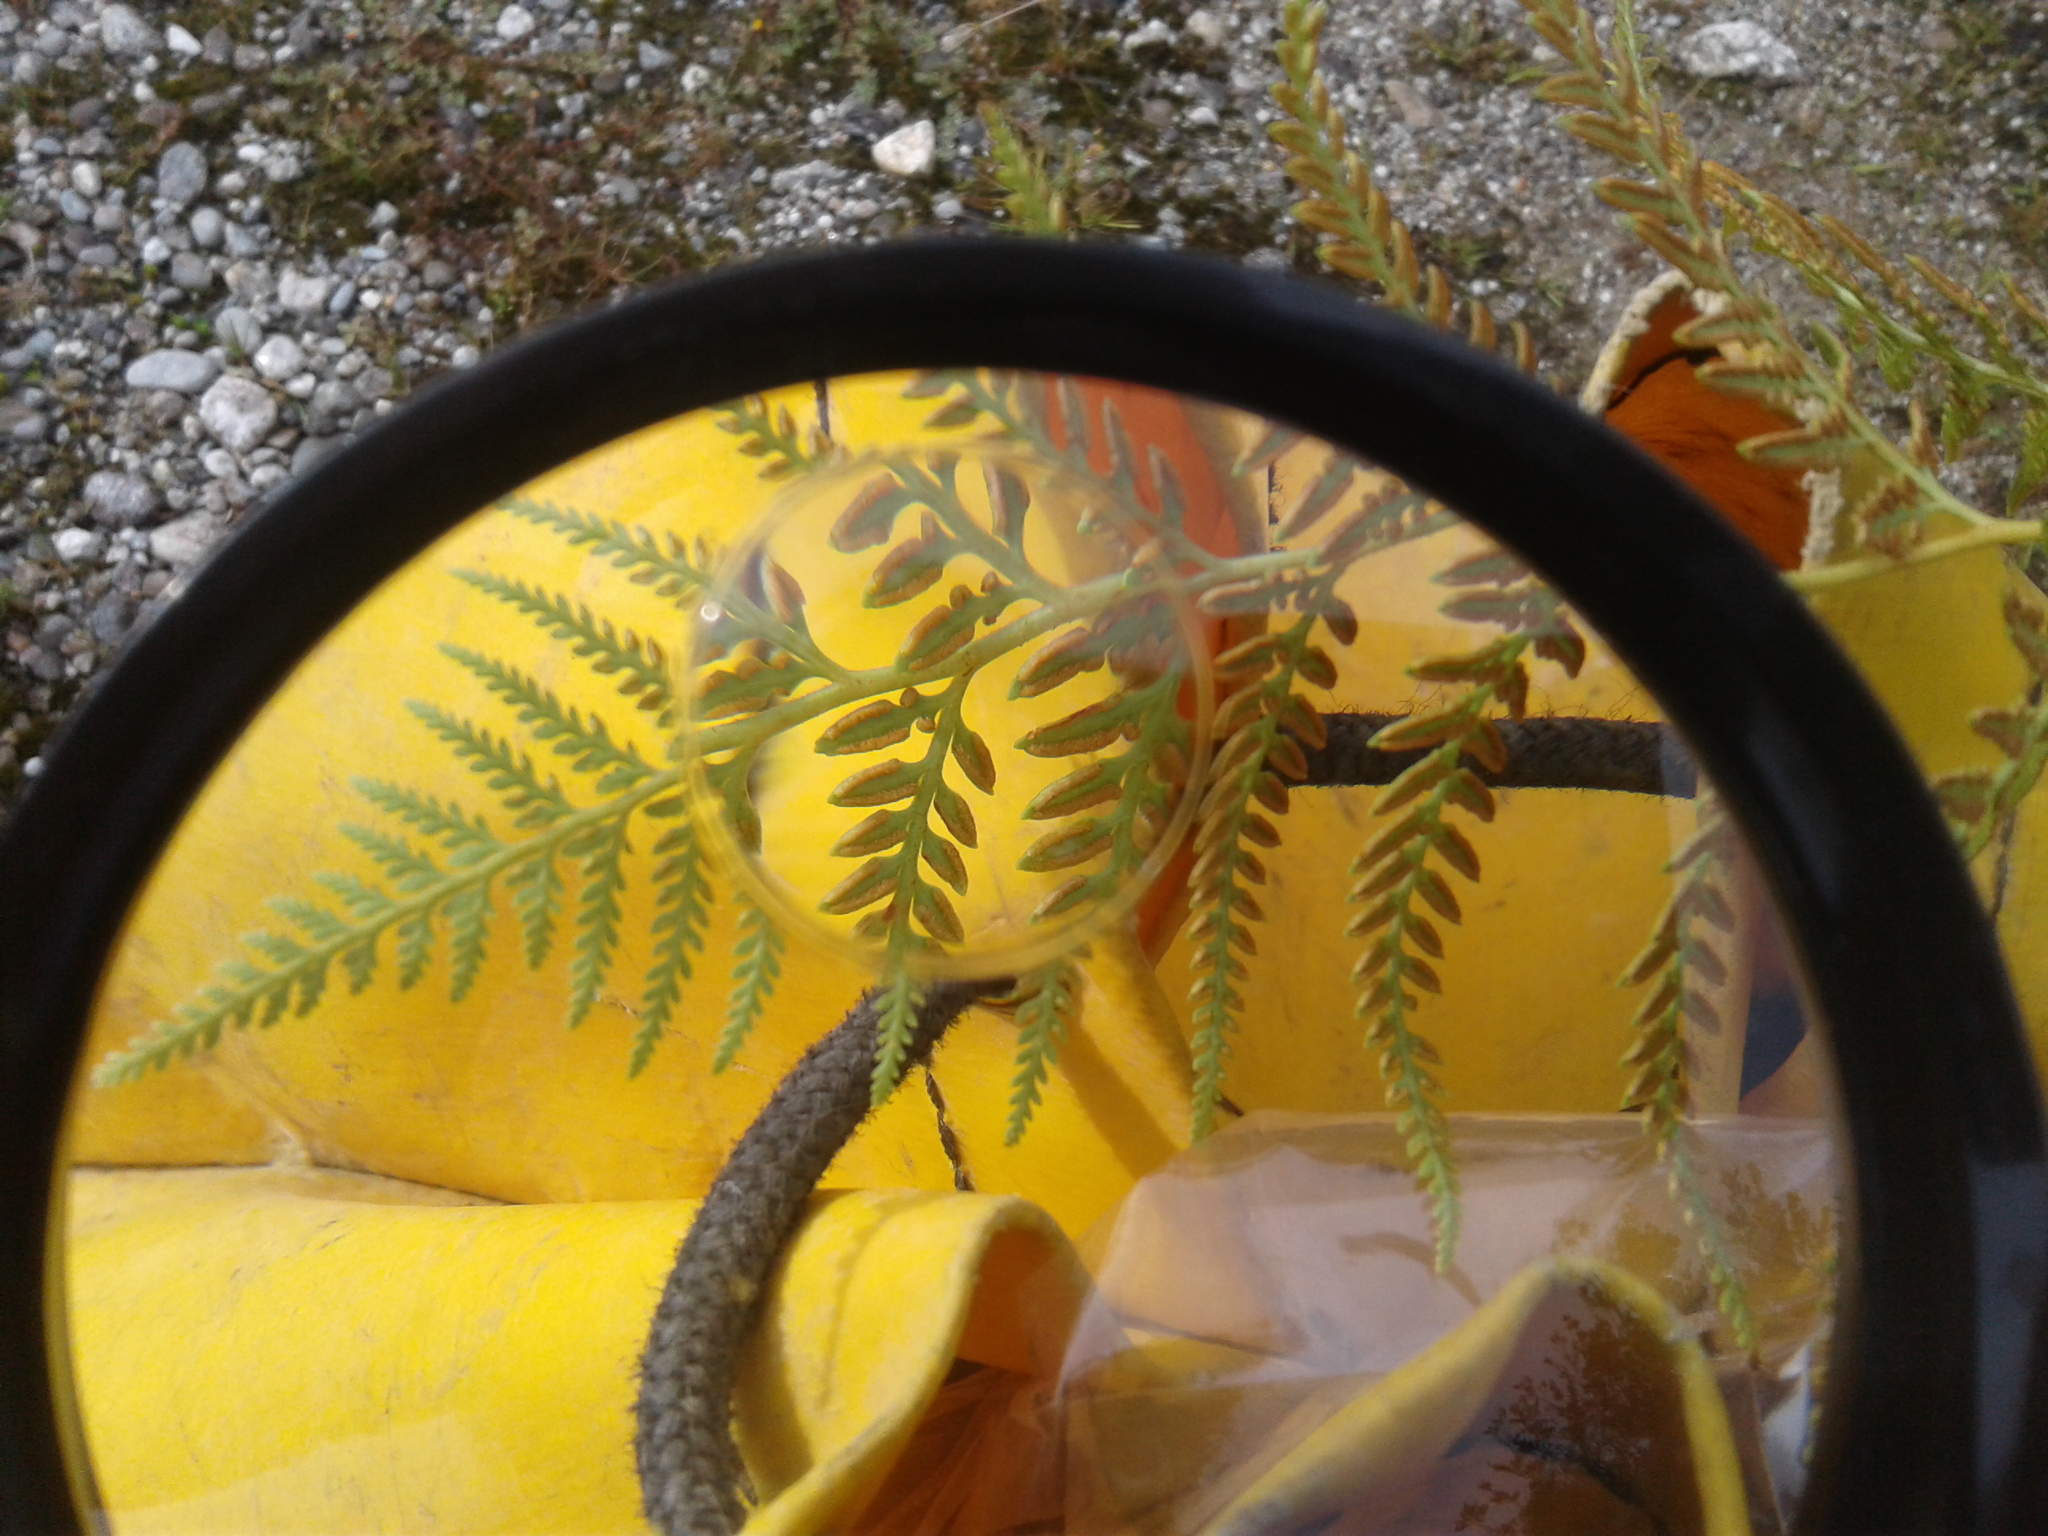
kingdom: Plantae
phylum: Tracheophyta
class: Polypodiopsida
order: Polypodiales
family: Dennstaedtiaceae
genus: Paesia
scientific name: Paesia scaberula
